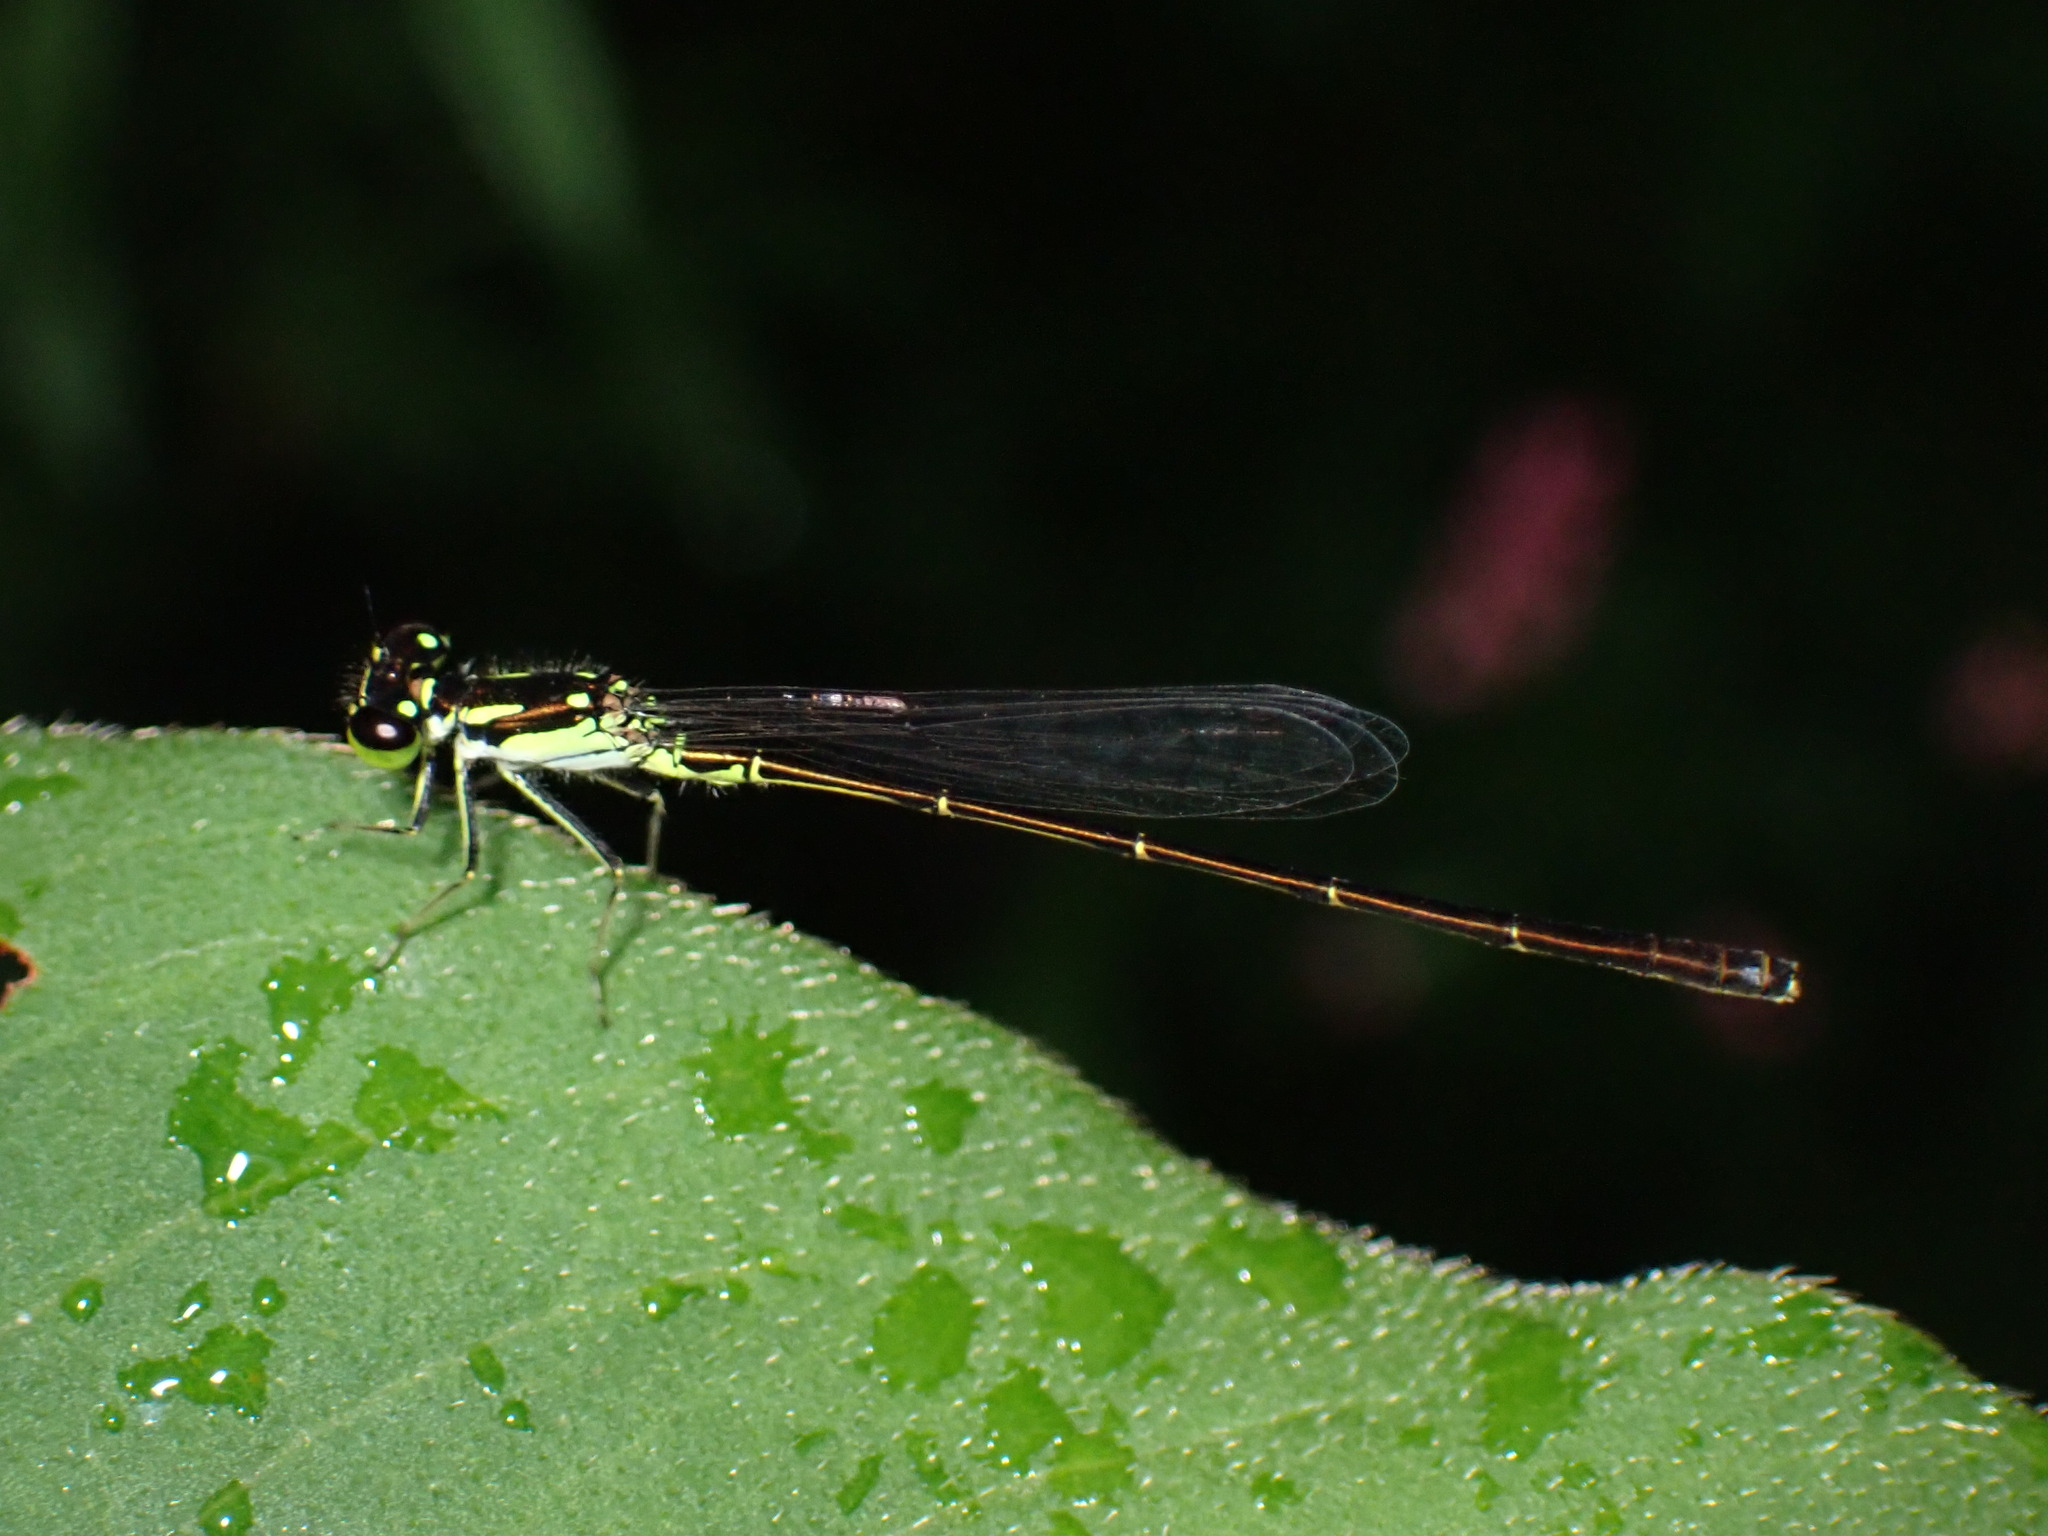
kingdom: Animalia
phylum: Arthropoda
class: Insecta
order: Odonata
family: Coenagrionidae
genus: Ischnura
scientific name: Ischnura posita
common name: Fragile forktail
